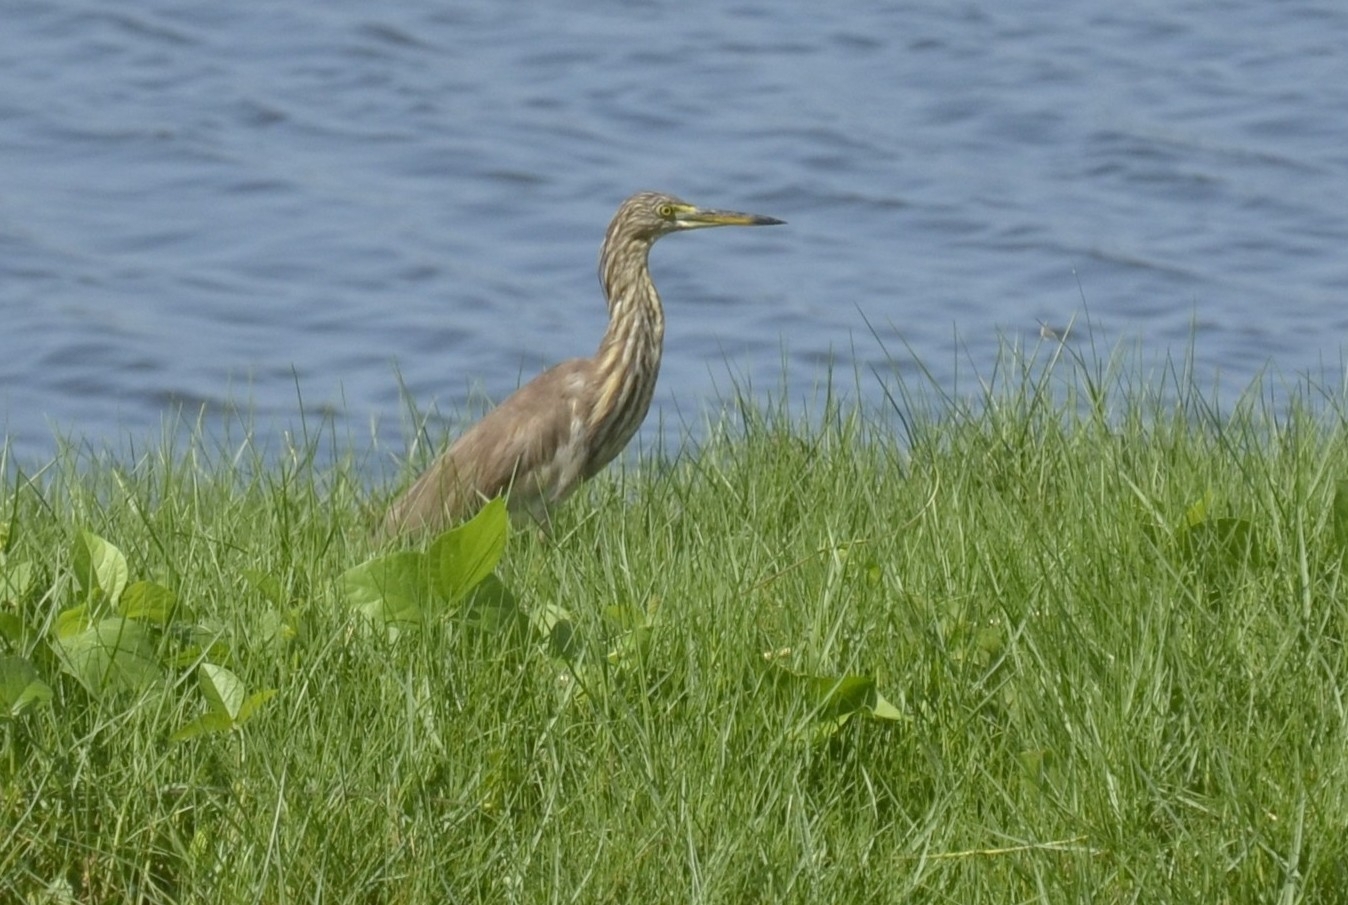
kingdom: Animalia
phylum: Chordata
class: Aves
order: Pelecaniformes
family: Ardeidae
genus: Ardeola
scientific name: Ardeola grayii
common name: Indian pond heron
